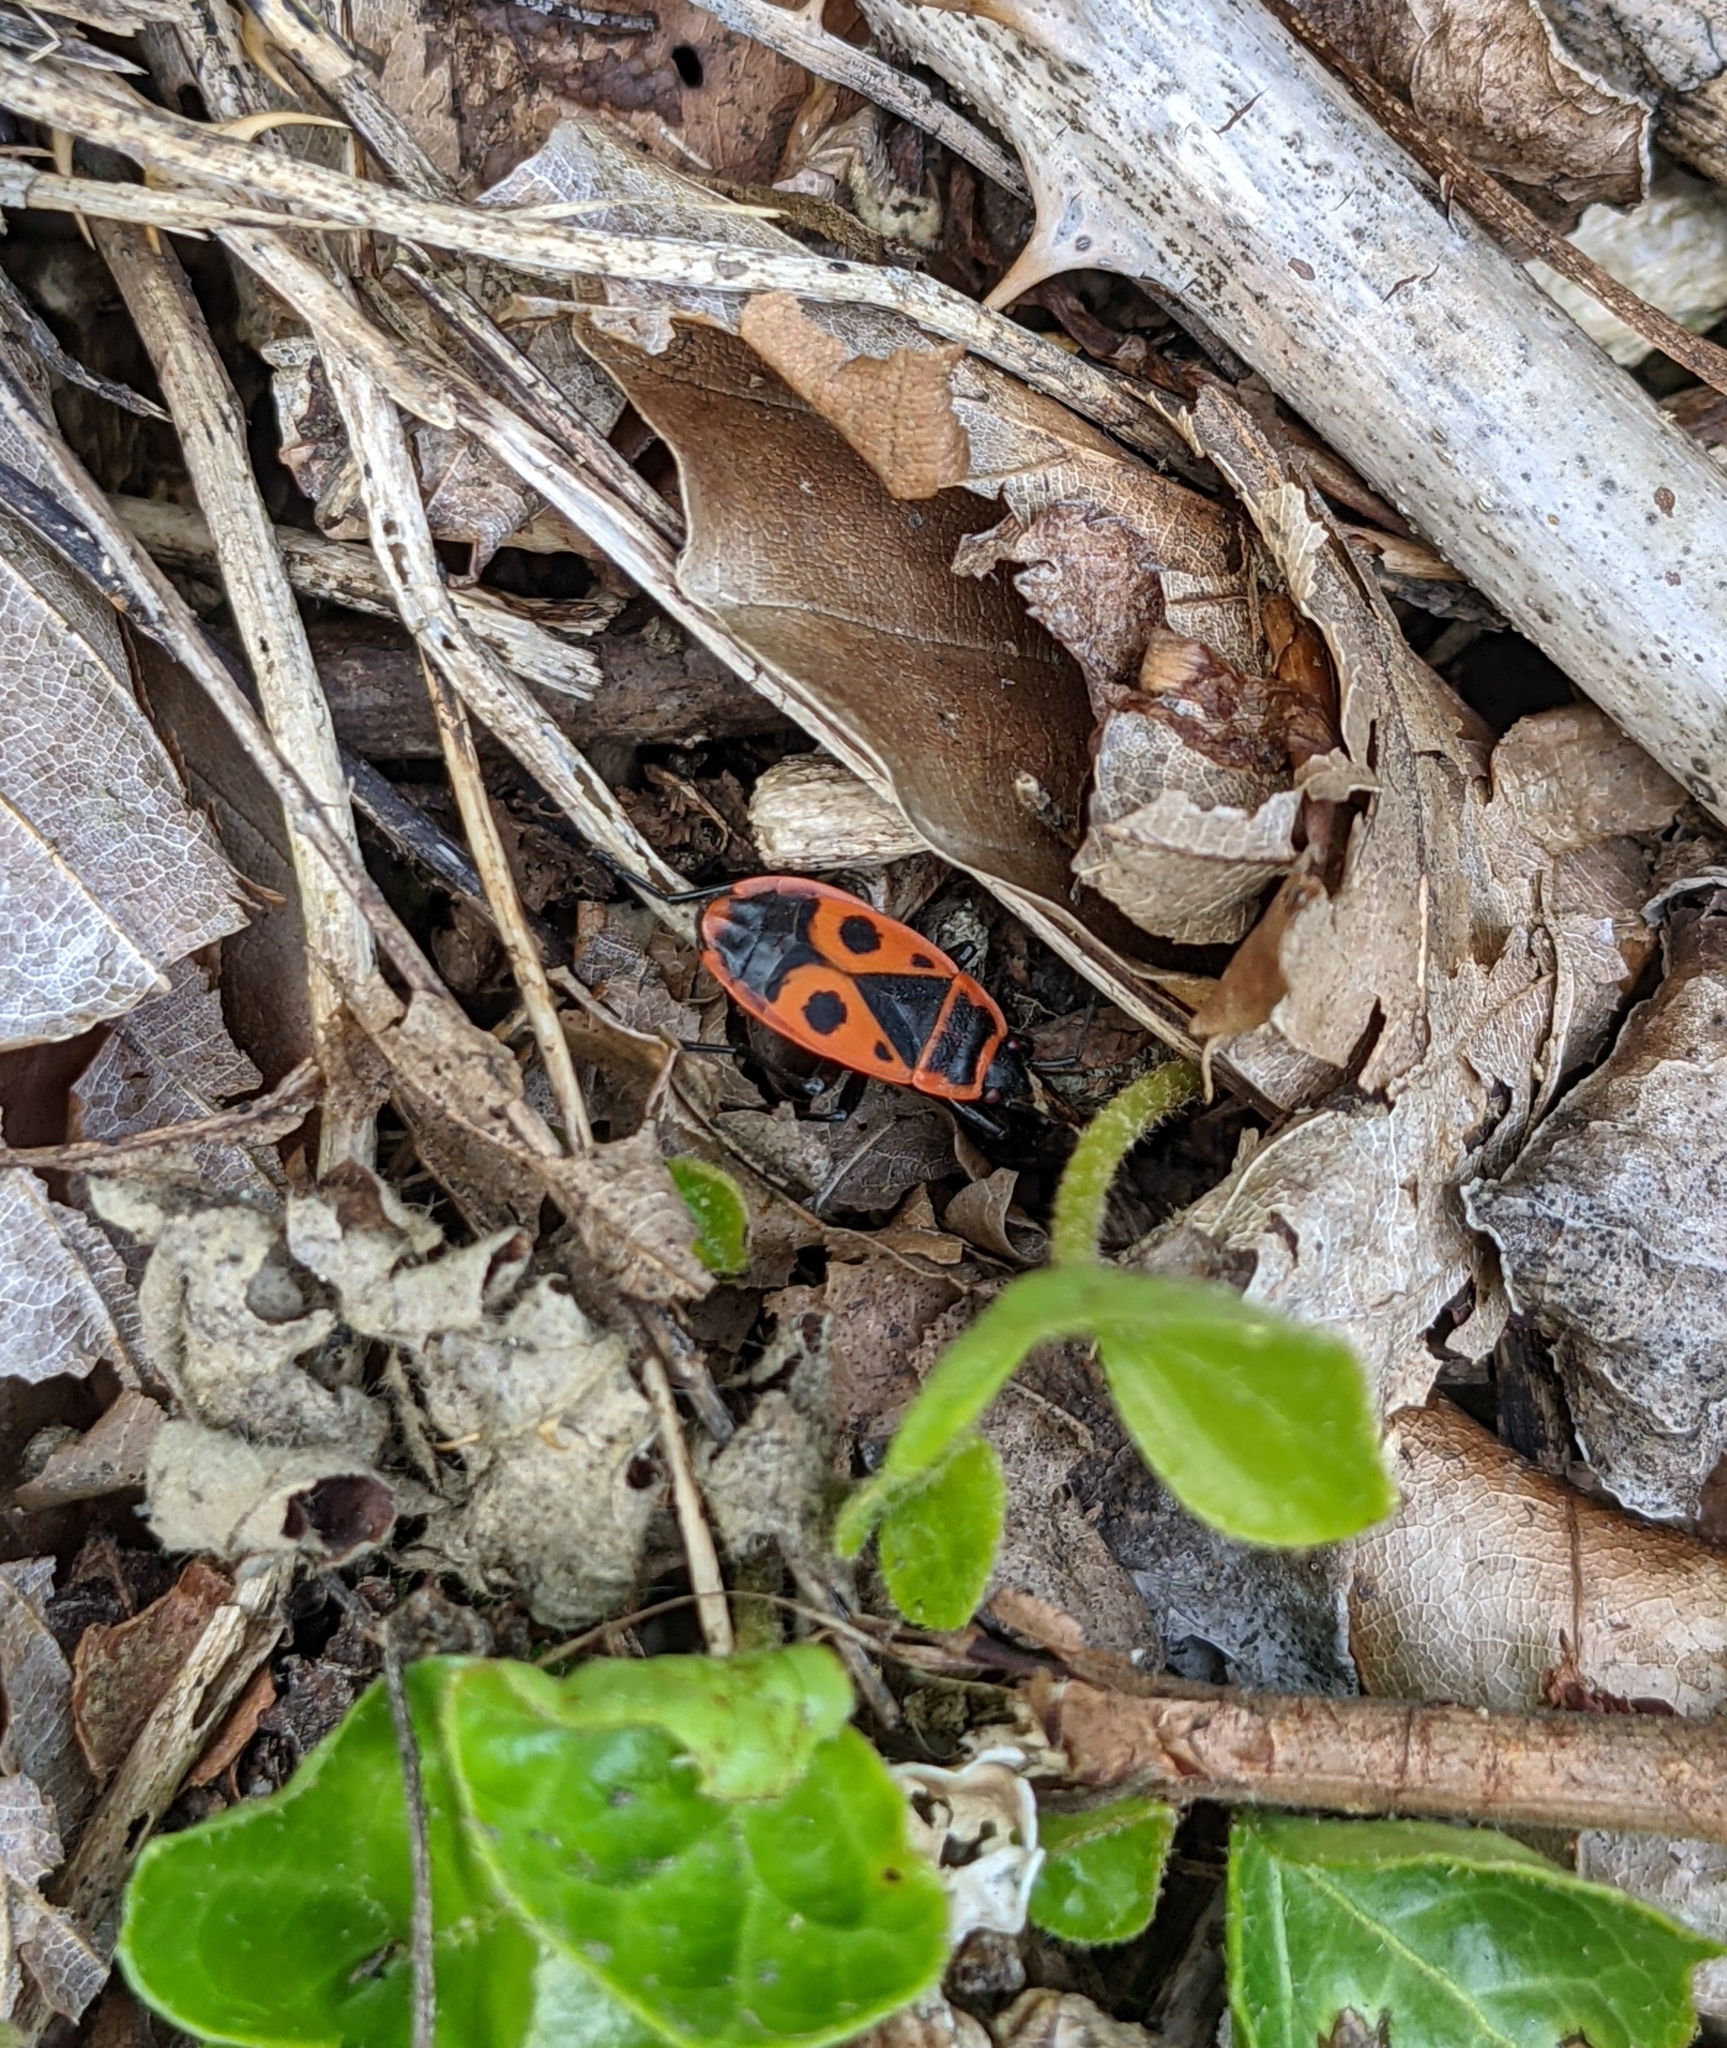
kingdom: Animalia
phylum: Arthropoda
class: Insecta
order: Hemiptera
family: Pyrrhocoridae
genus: Pyrrhocoris
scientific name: Pyrrhocoris apterus
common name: Firebug
